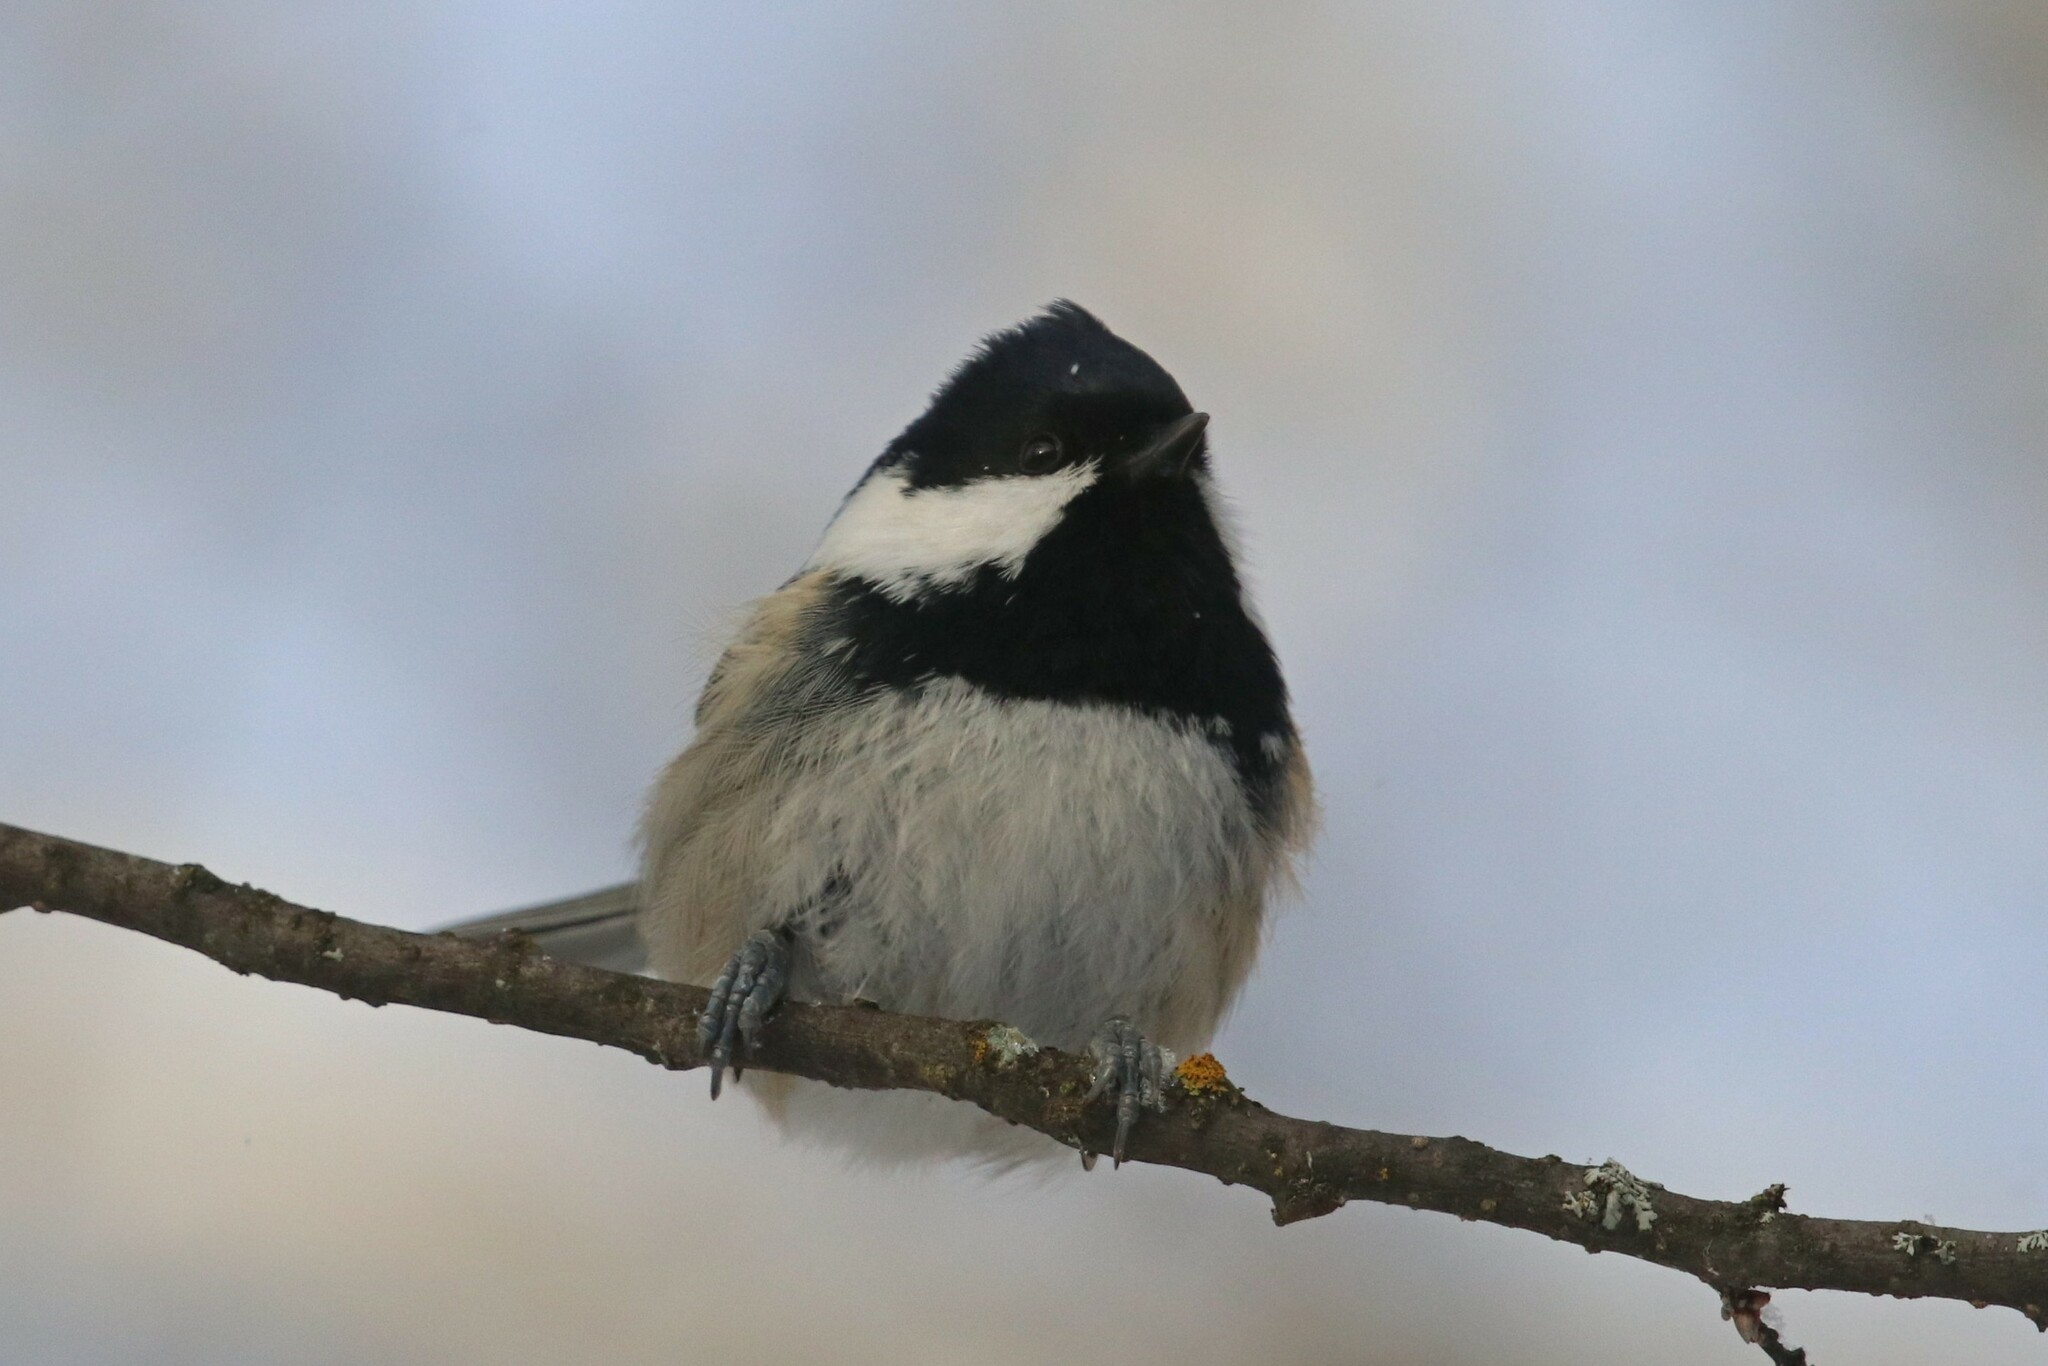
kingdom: Animalia
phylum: Chordata
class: Aves
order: Passeriformes
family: Paridae
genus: Periparus
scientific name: Periparus ater
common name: Coal tit
